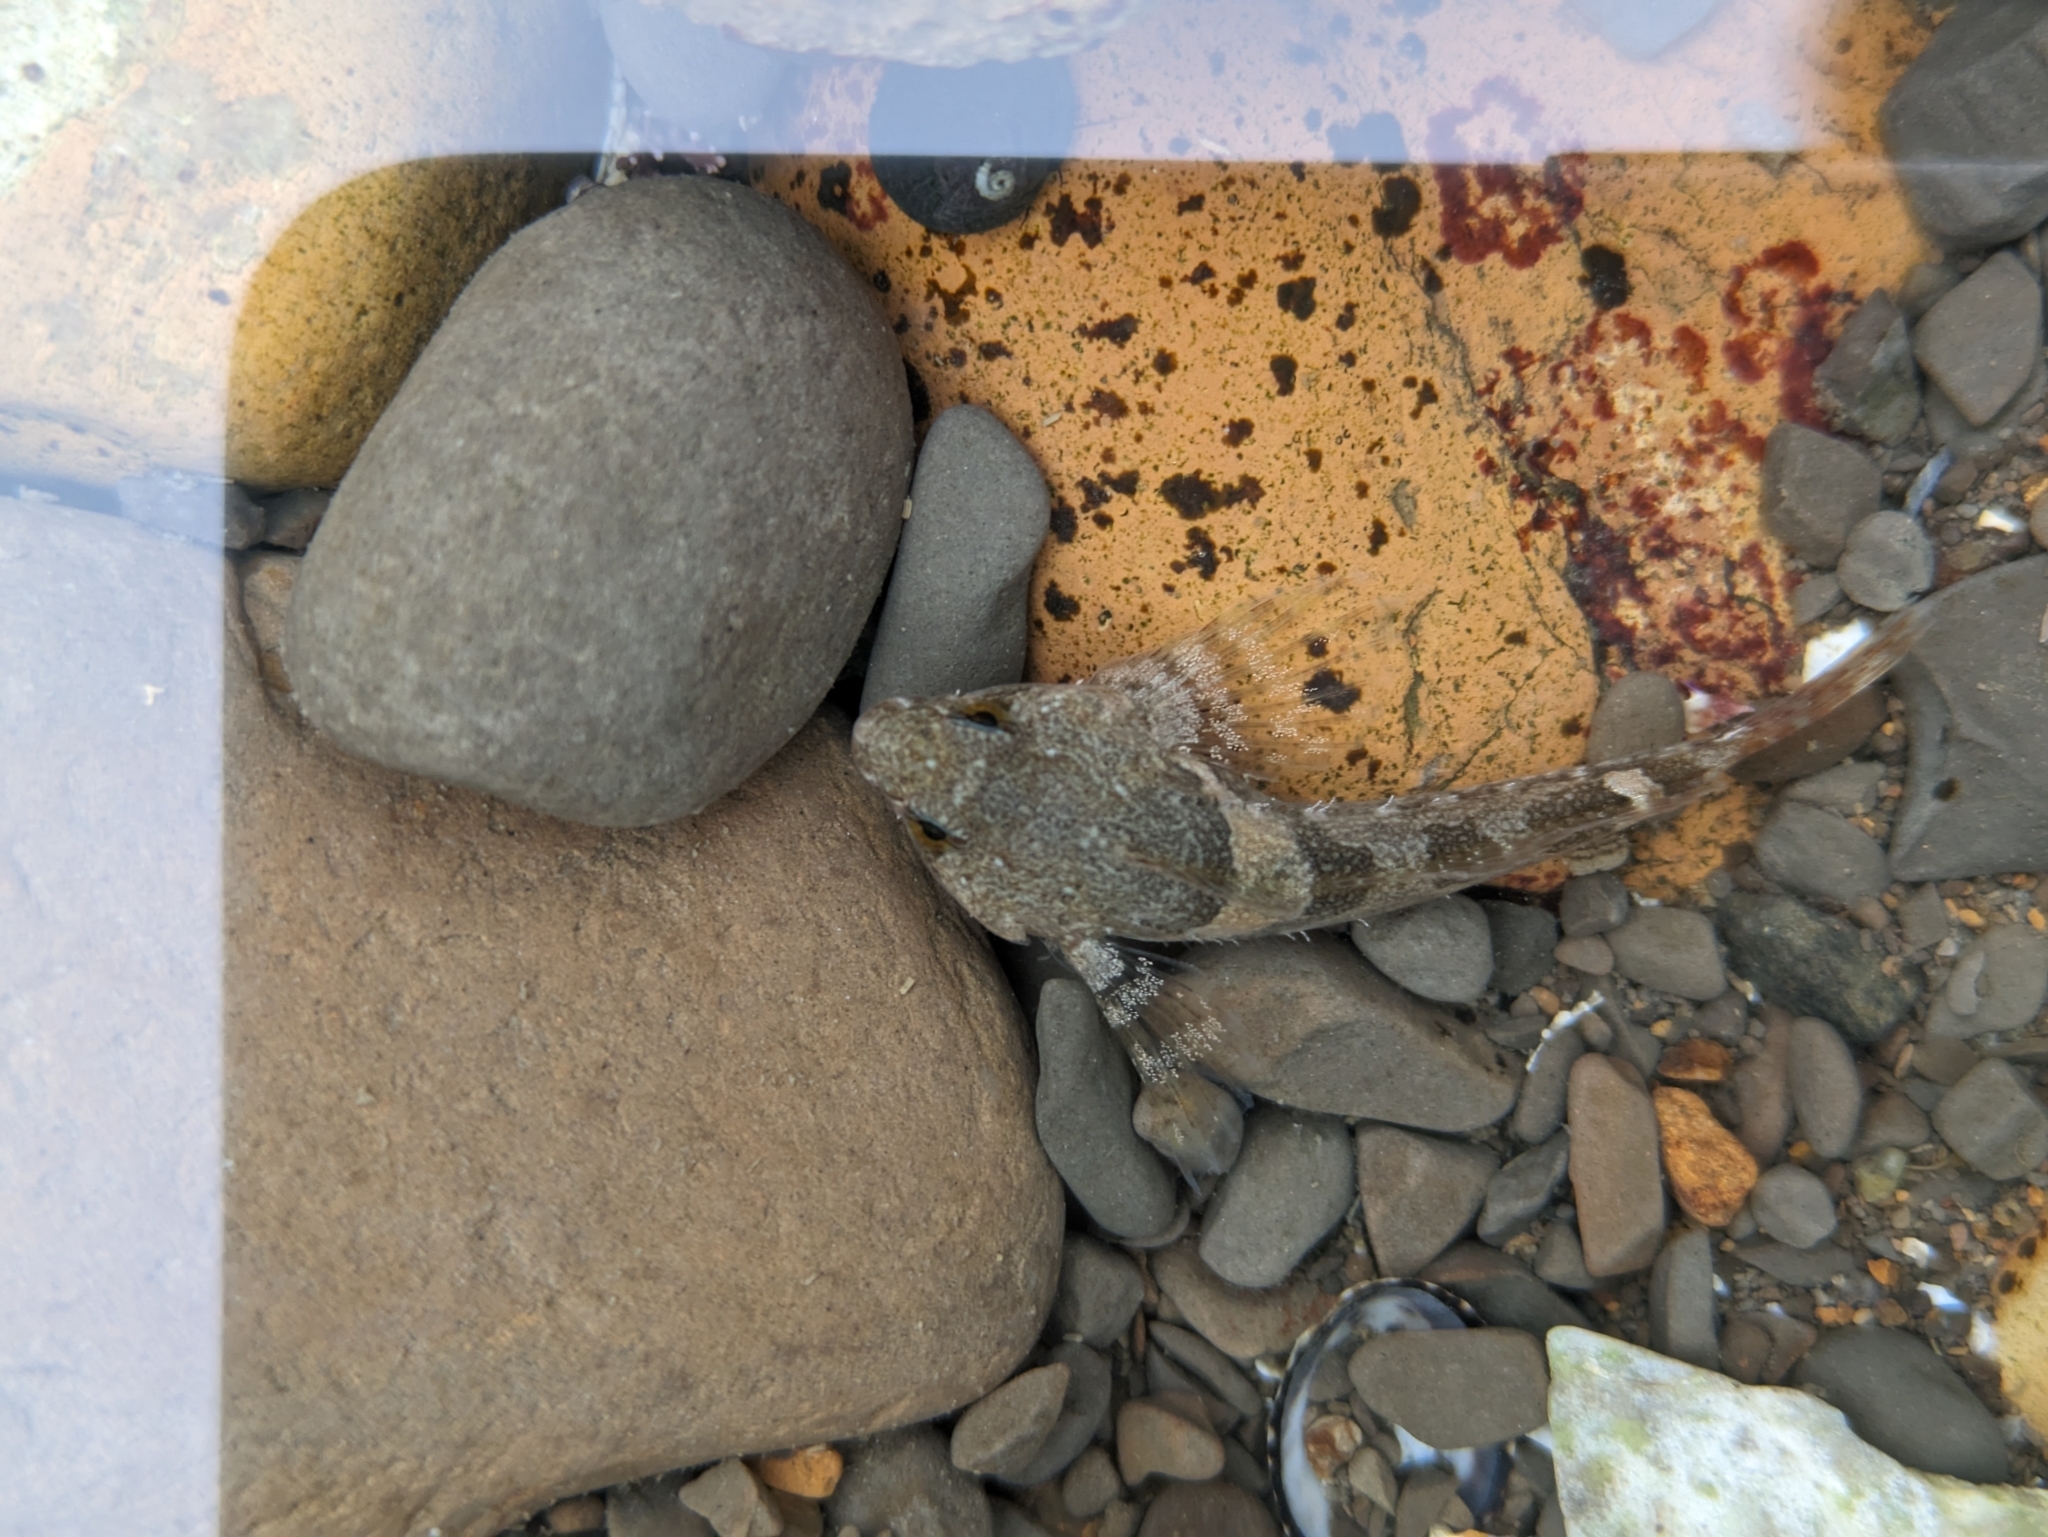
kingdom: Animalia
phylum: Chordata
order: Scorpaeniformes
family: Cottidae
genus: Oligocottus
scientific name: Oligocottus maculosus
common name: Tidepool sculpin
